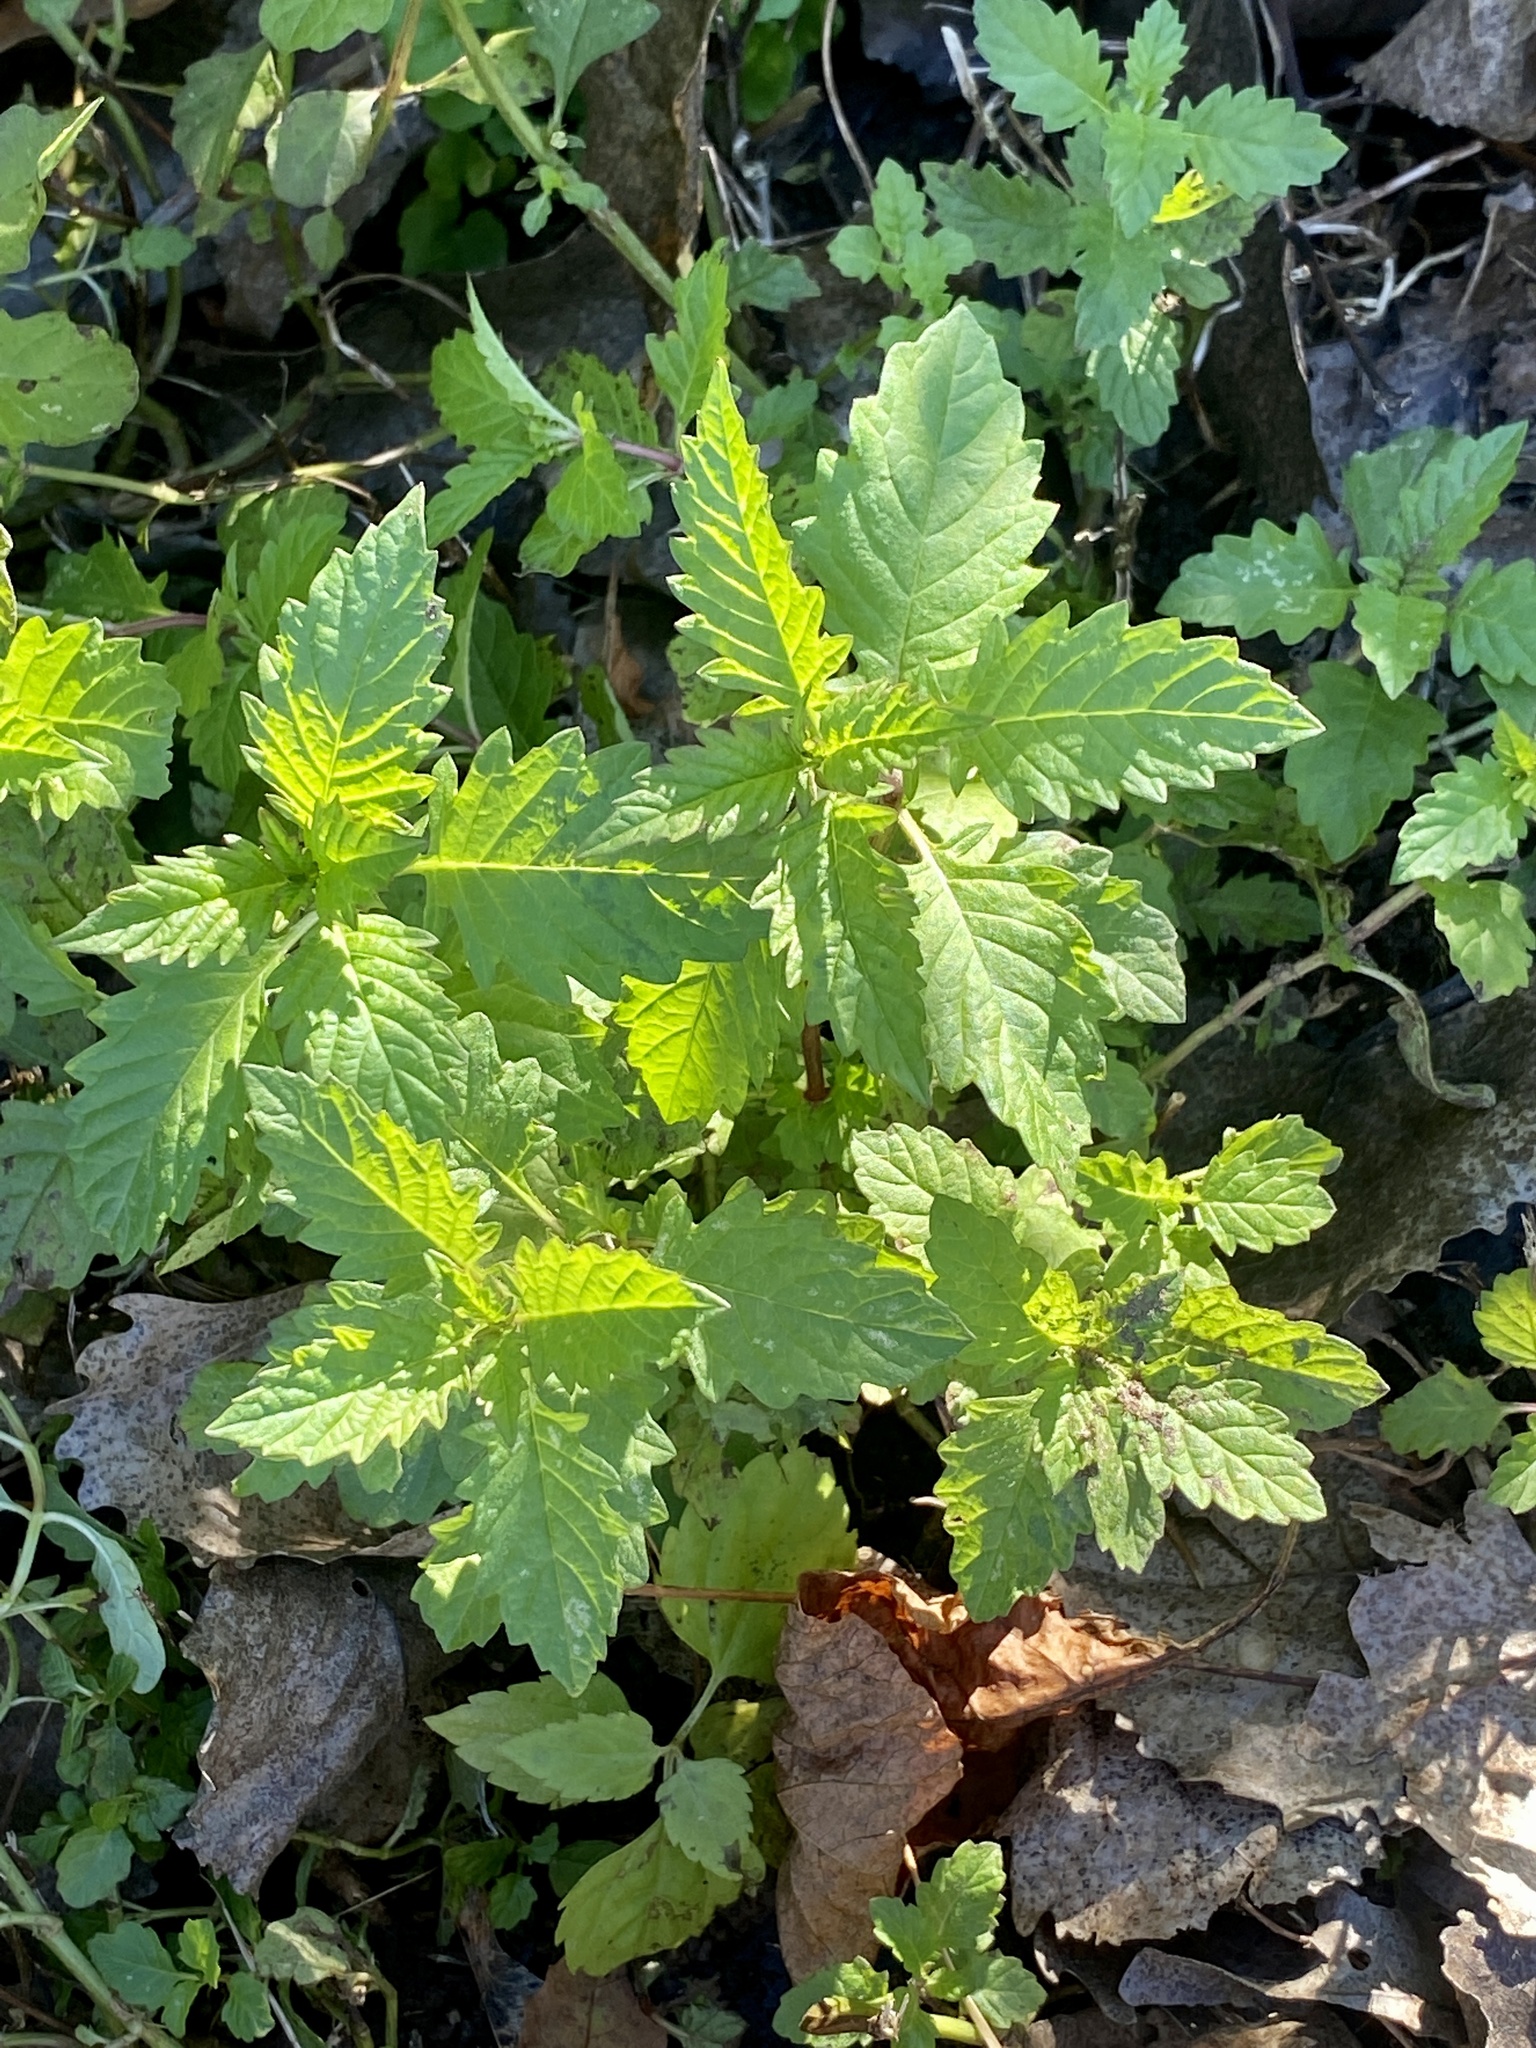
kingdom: Plantae
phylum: Tracheophyta
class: Magnoliopsida
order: Lamiales
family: Lamiaceae
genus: Lycopus
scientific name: Lycopus europaeus
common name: European bugleweed
